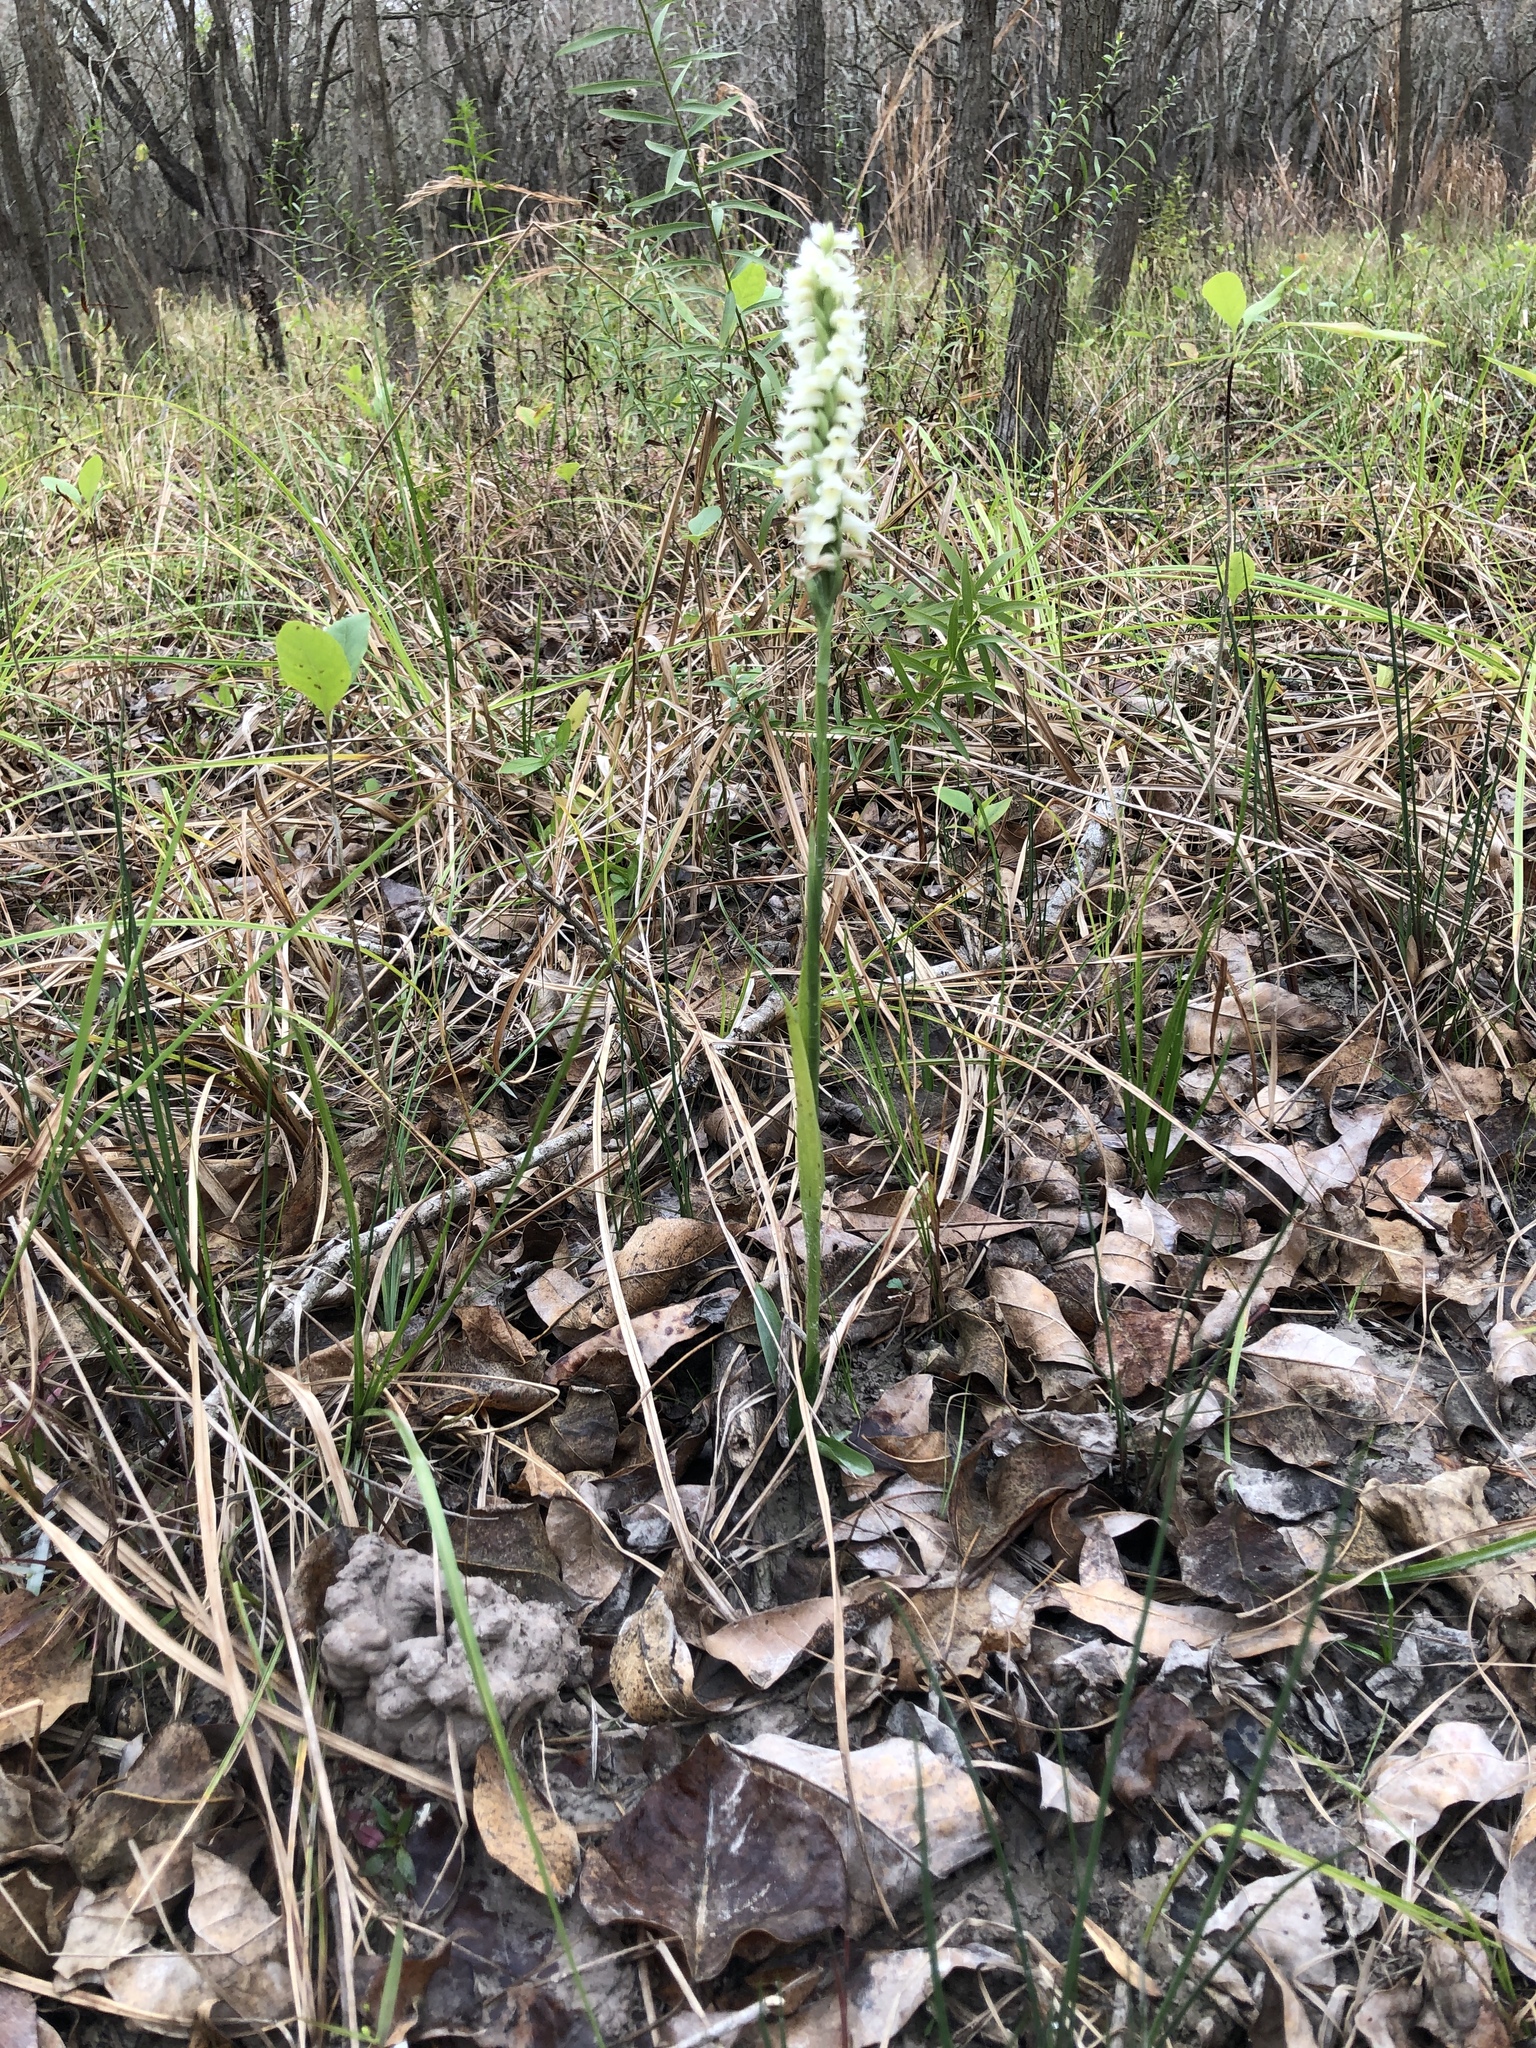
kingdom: Plantae
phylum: Tracheophyta
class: Liliopsida
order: Asparagales
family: Orchidaceae
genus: Spiranthes
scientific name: Spiranthes odorata
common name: Marsh ladies'-tresses
